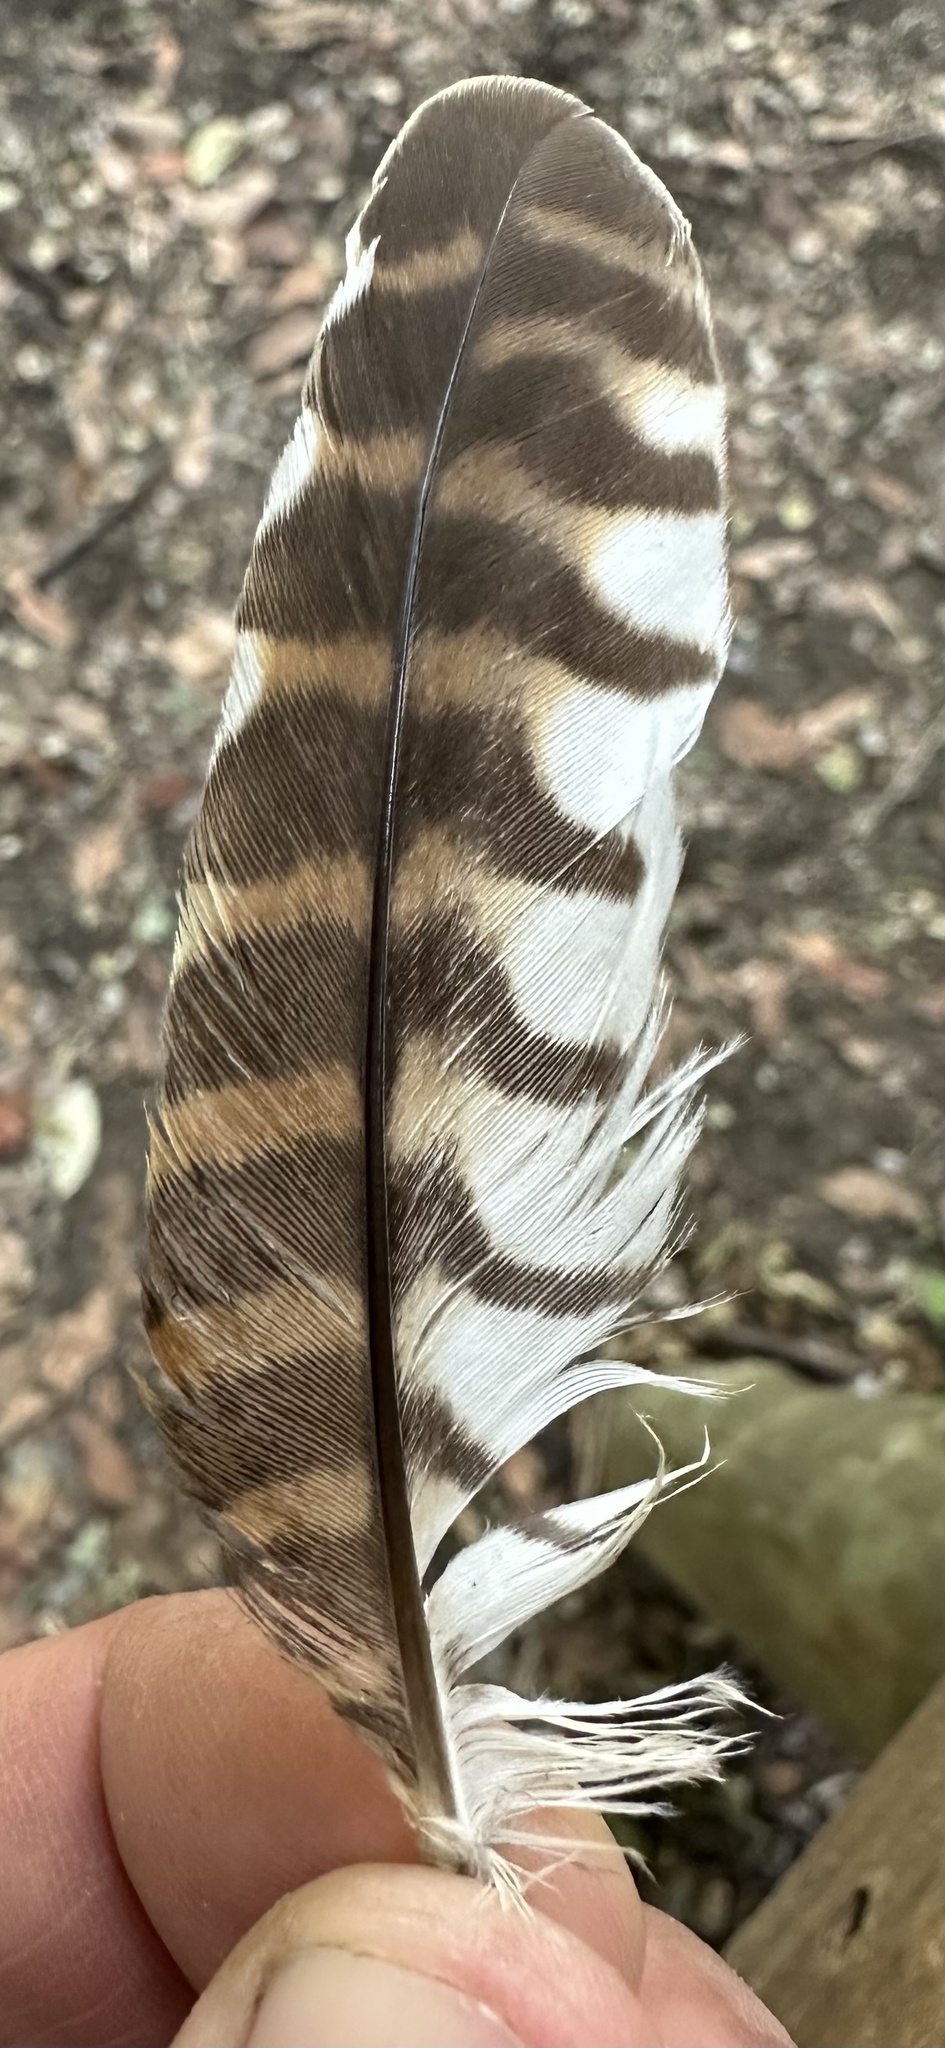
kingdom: Animalia
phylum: Chordata
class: Aves
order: Strigiformes
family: Strigidae
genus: Glaucidium
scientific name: Glaucidium capense
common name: African barred owlet
